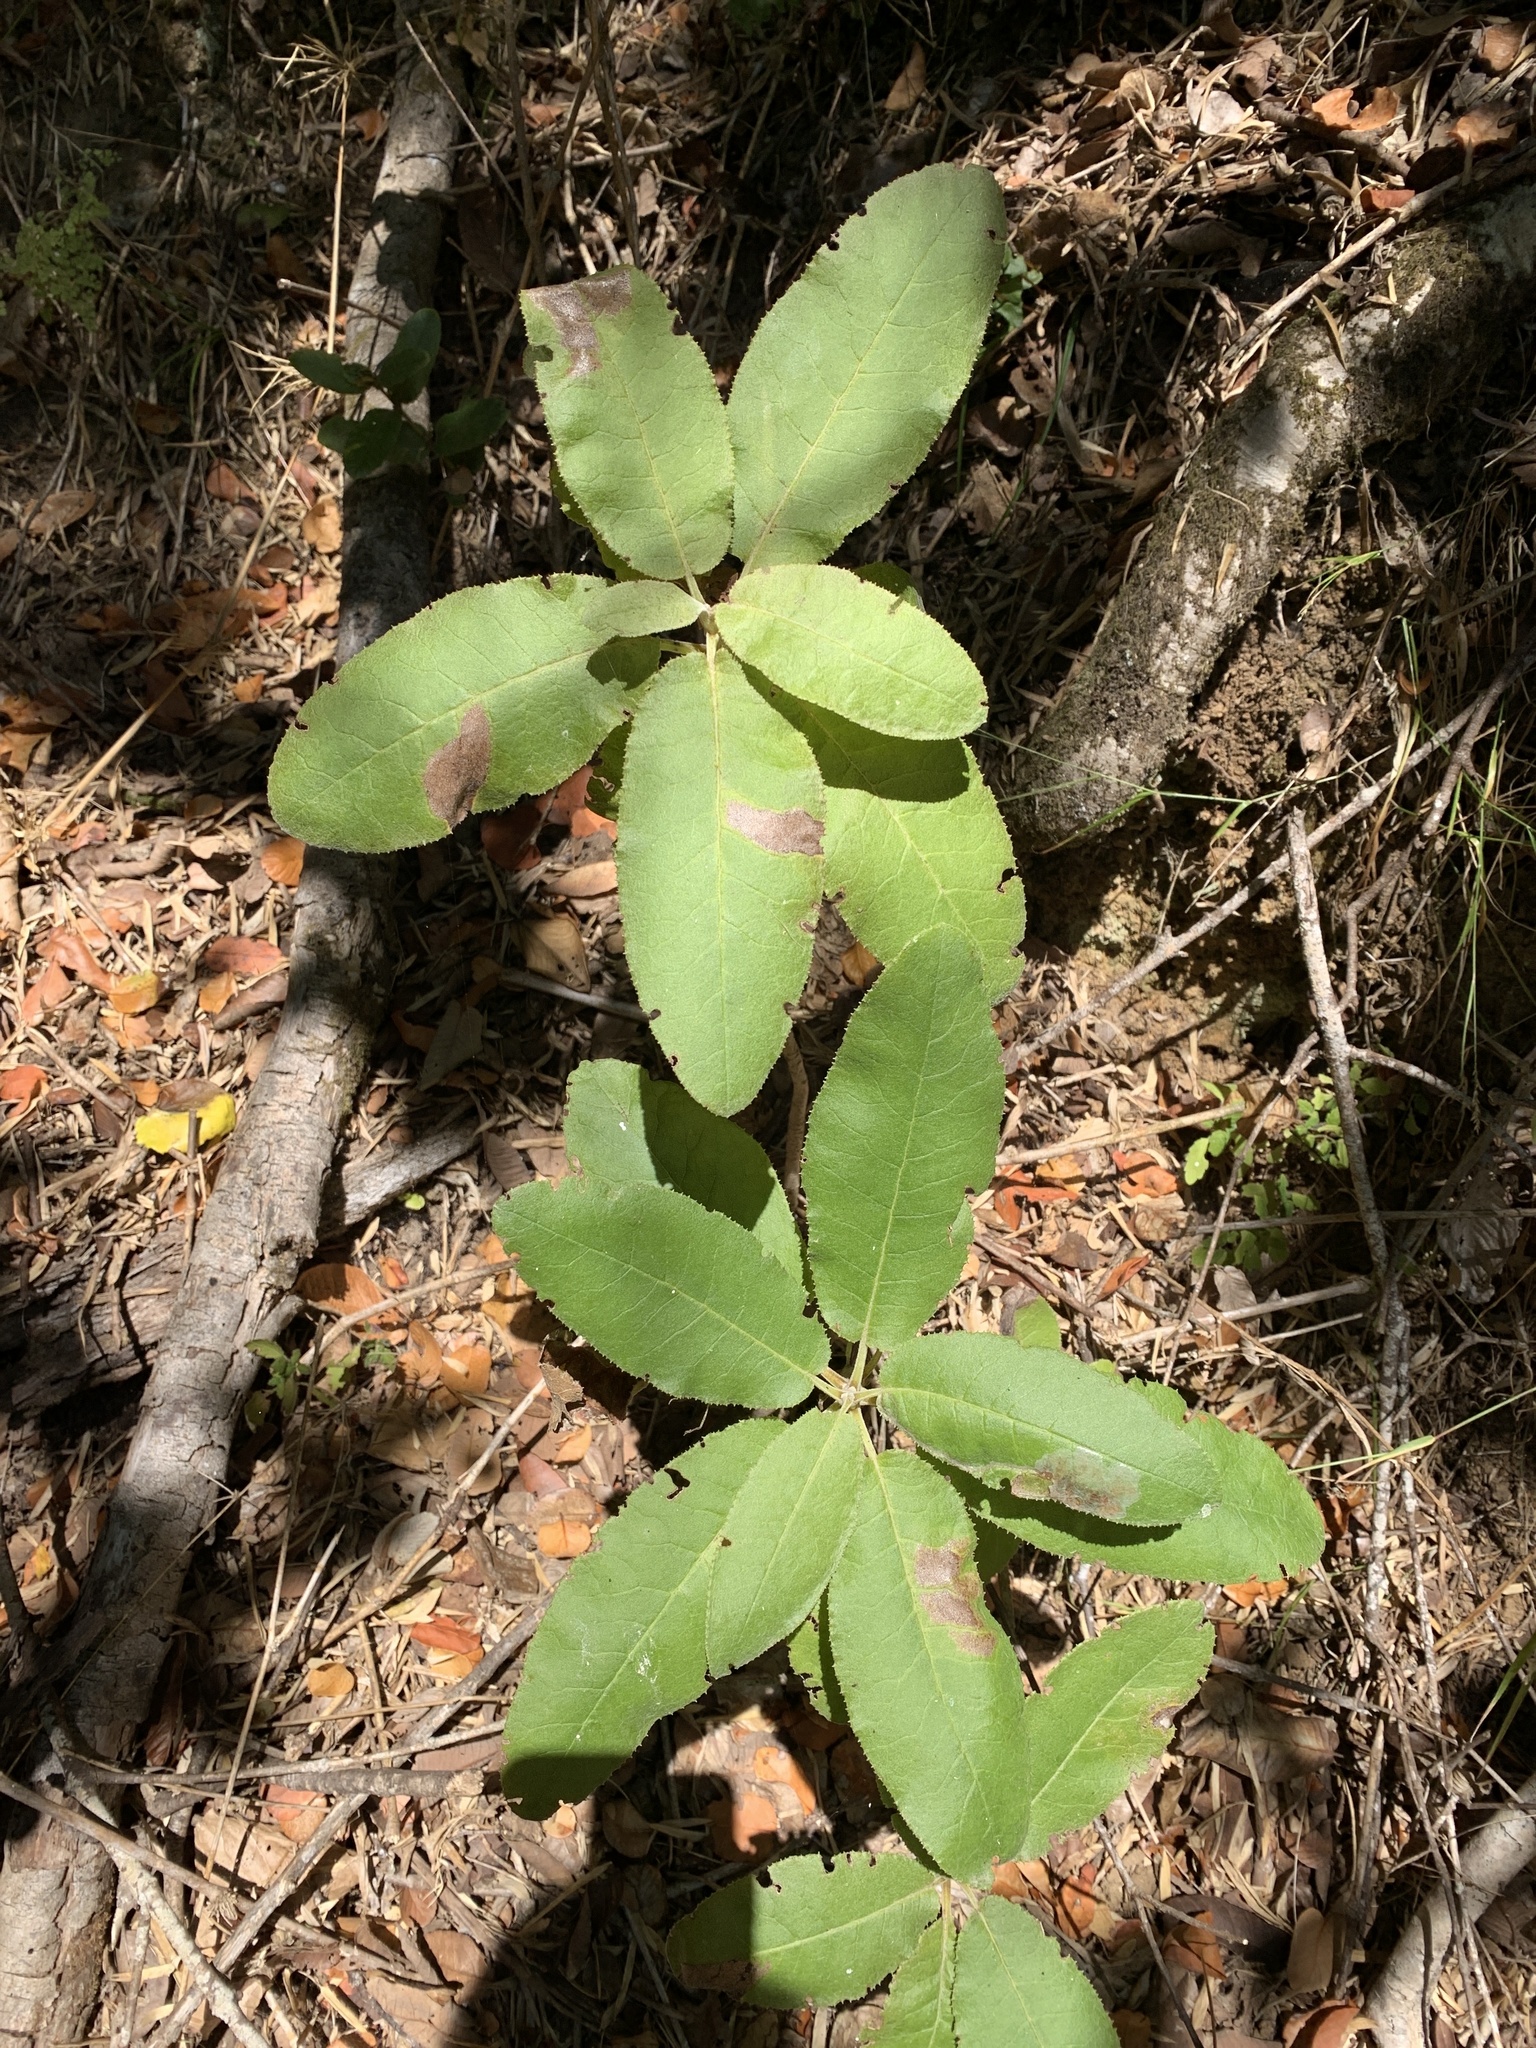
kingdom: Plantae
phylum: Tracheophyta
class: Magnoliopsida
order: Asterales
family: Asteraceae
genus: Acrisione
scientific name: Acrisione denticulata
